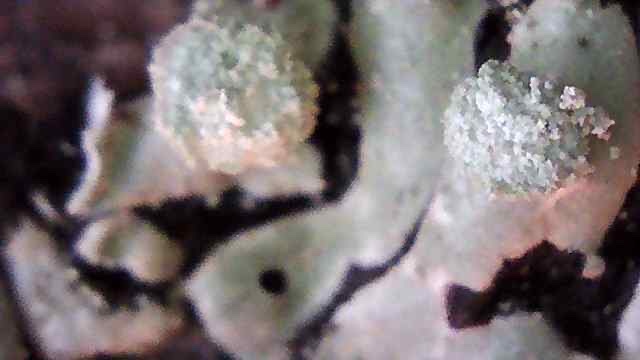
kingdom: Fungi
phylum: Ascomycota
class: Lecanoromycetes
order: Lecanorales
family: Parmeliaceae
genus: Menegazzia
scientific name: Menegazzia terebrata
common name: Magic treeflute lichen
